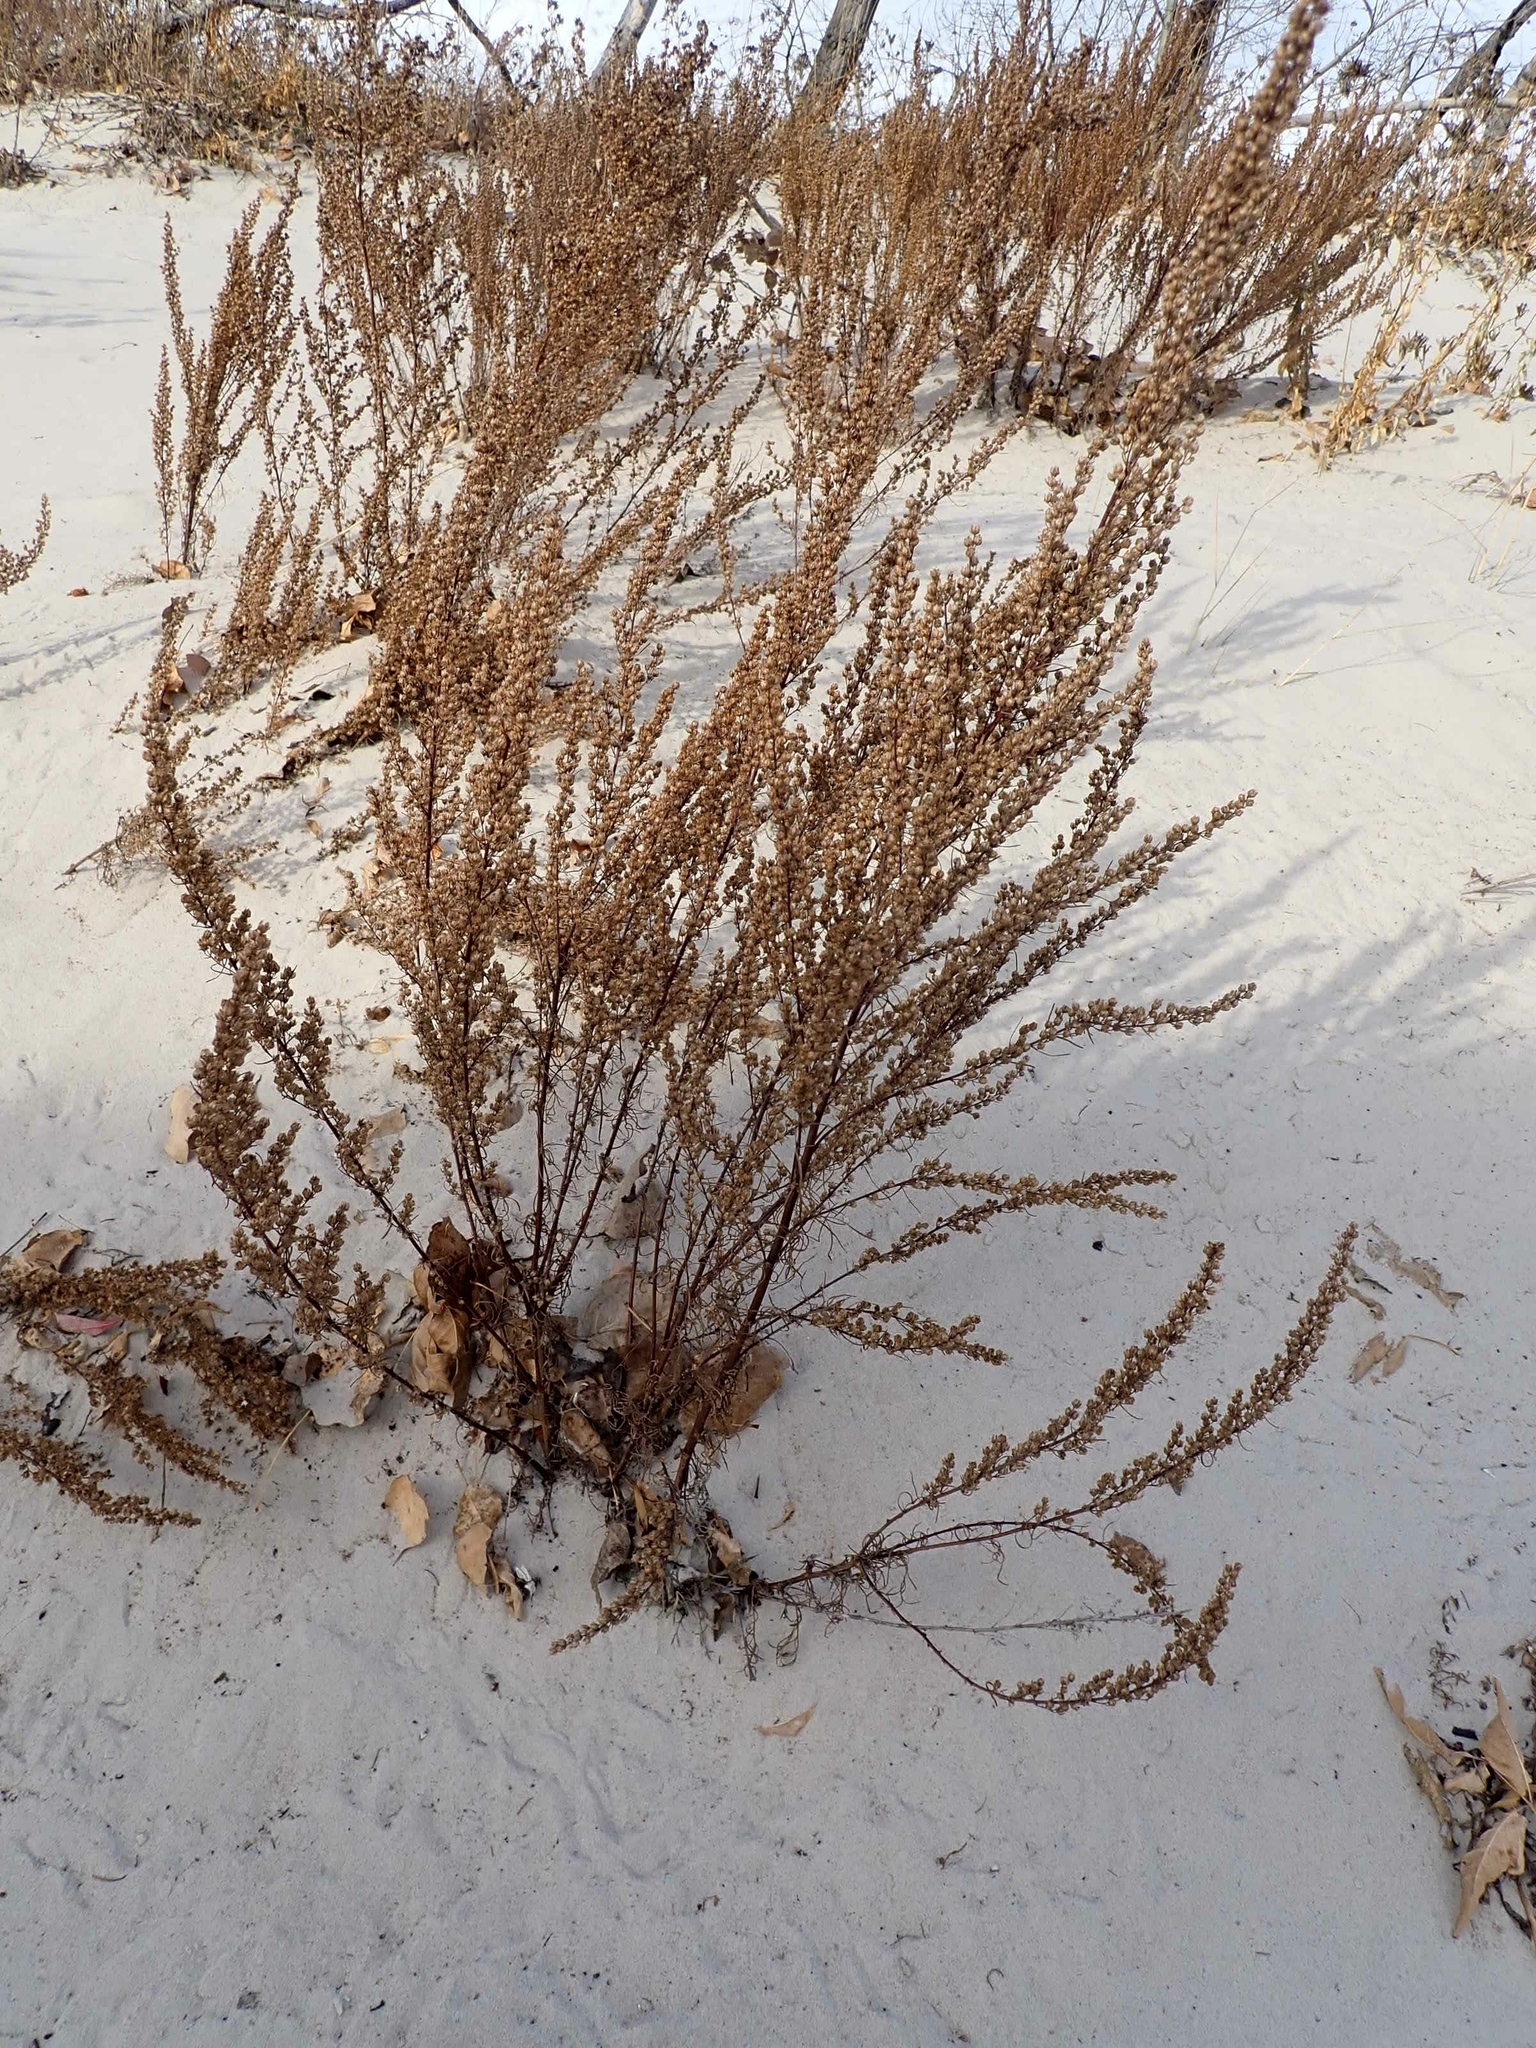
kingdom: Plantae
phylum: Tracheophyta
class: Magnoliopsida
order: Asterales
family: Asteraceae
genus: Artemisia
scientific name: Artemisia campestris
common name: Field wormwood
